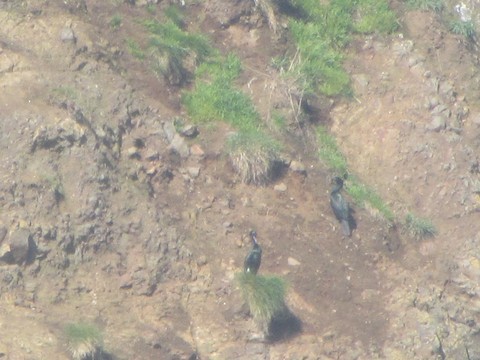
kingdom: Animalia
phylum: Chordata
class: Aves
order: Suliformes
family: Phalacrocoracidae
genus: Phalacrocorax
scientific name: Phalacrocorax pelagicus
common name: Pelagic cormorant
